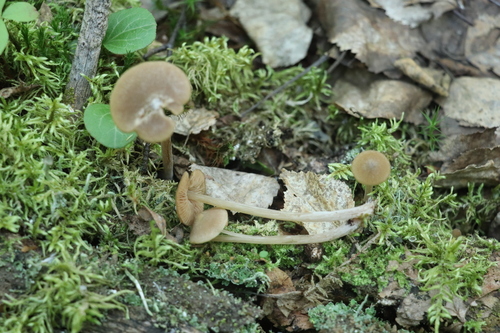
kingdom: Fungi
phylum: Basidiomycota
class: Agaricomycetes
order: Agaricales
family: Entolomataceae
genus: Entoloma
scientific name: Entoloma lanuginosipes
